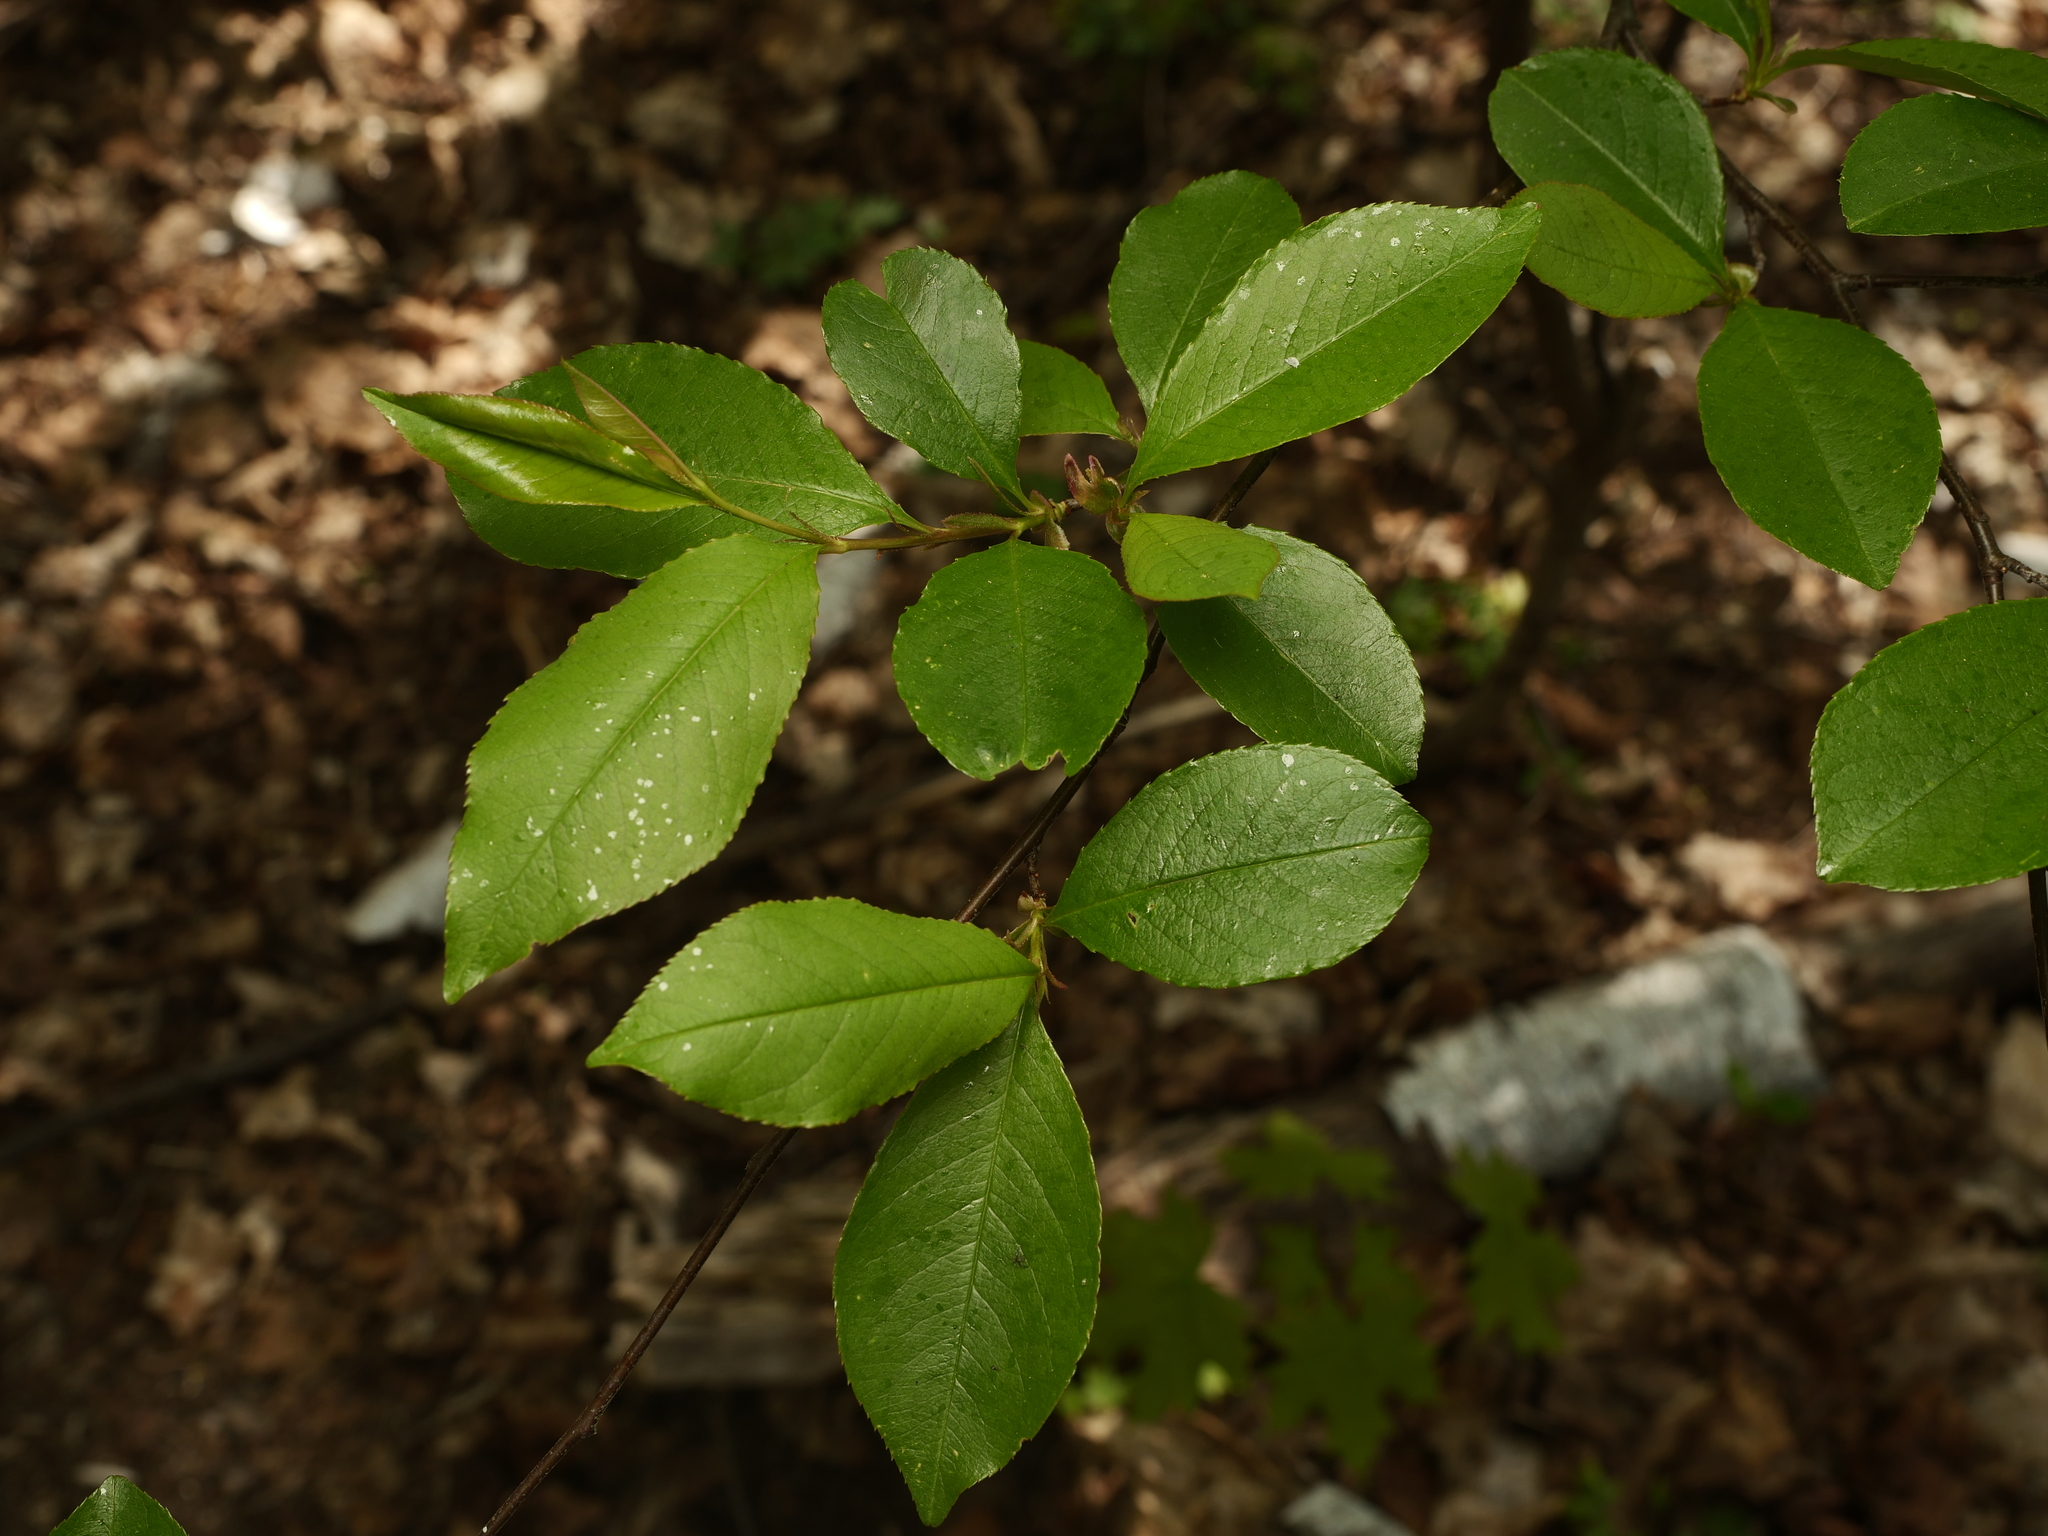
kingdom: Plantae
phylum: Tracheophyta
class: Magnoliopsida
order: Rosales
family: Rosaceae
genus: Prunus
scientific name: Prunus serotina
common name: Black cherry
